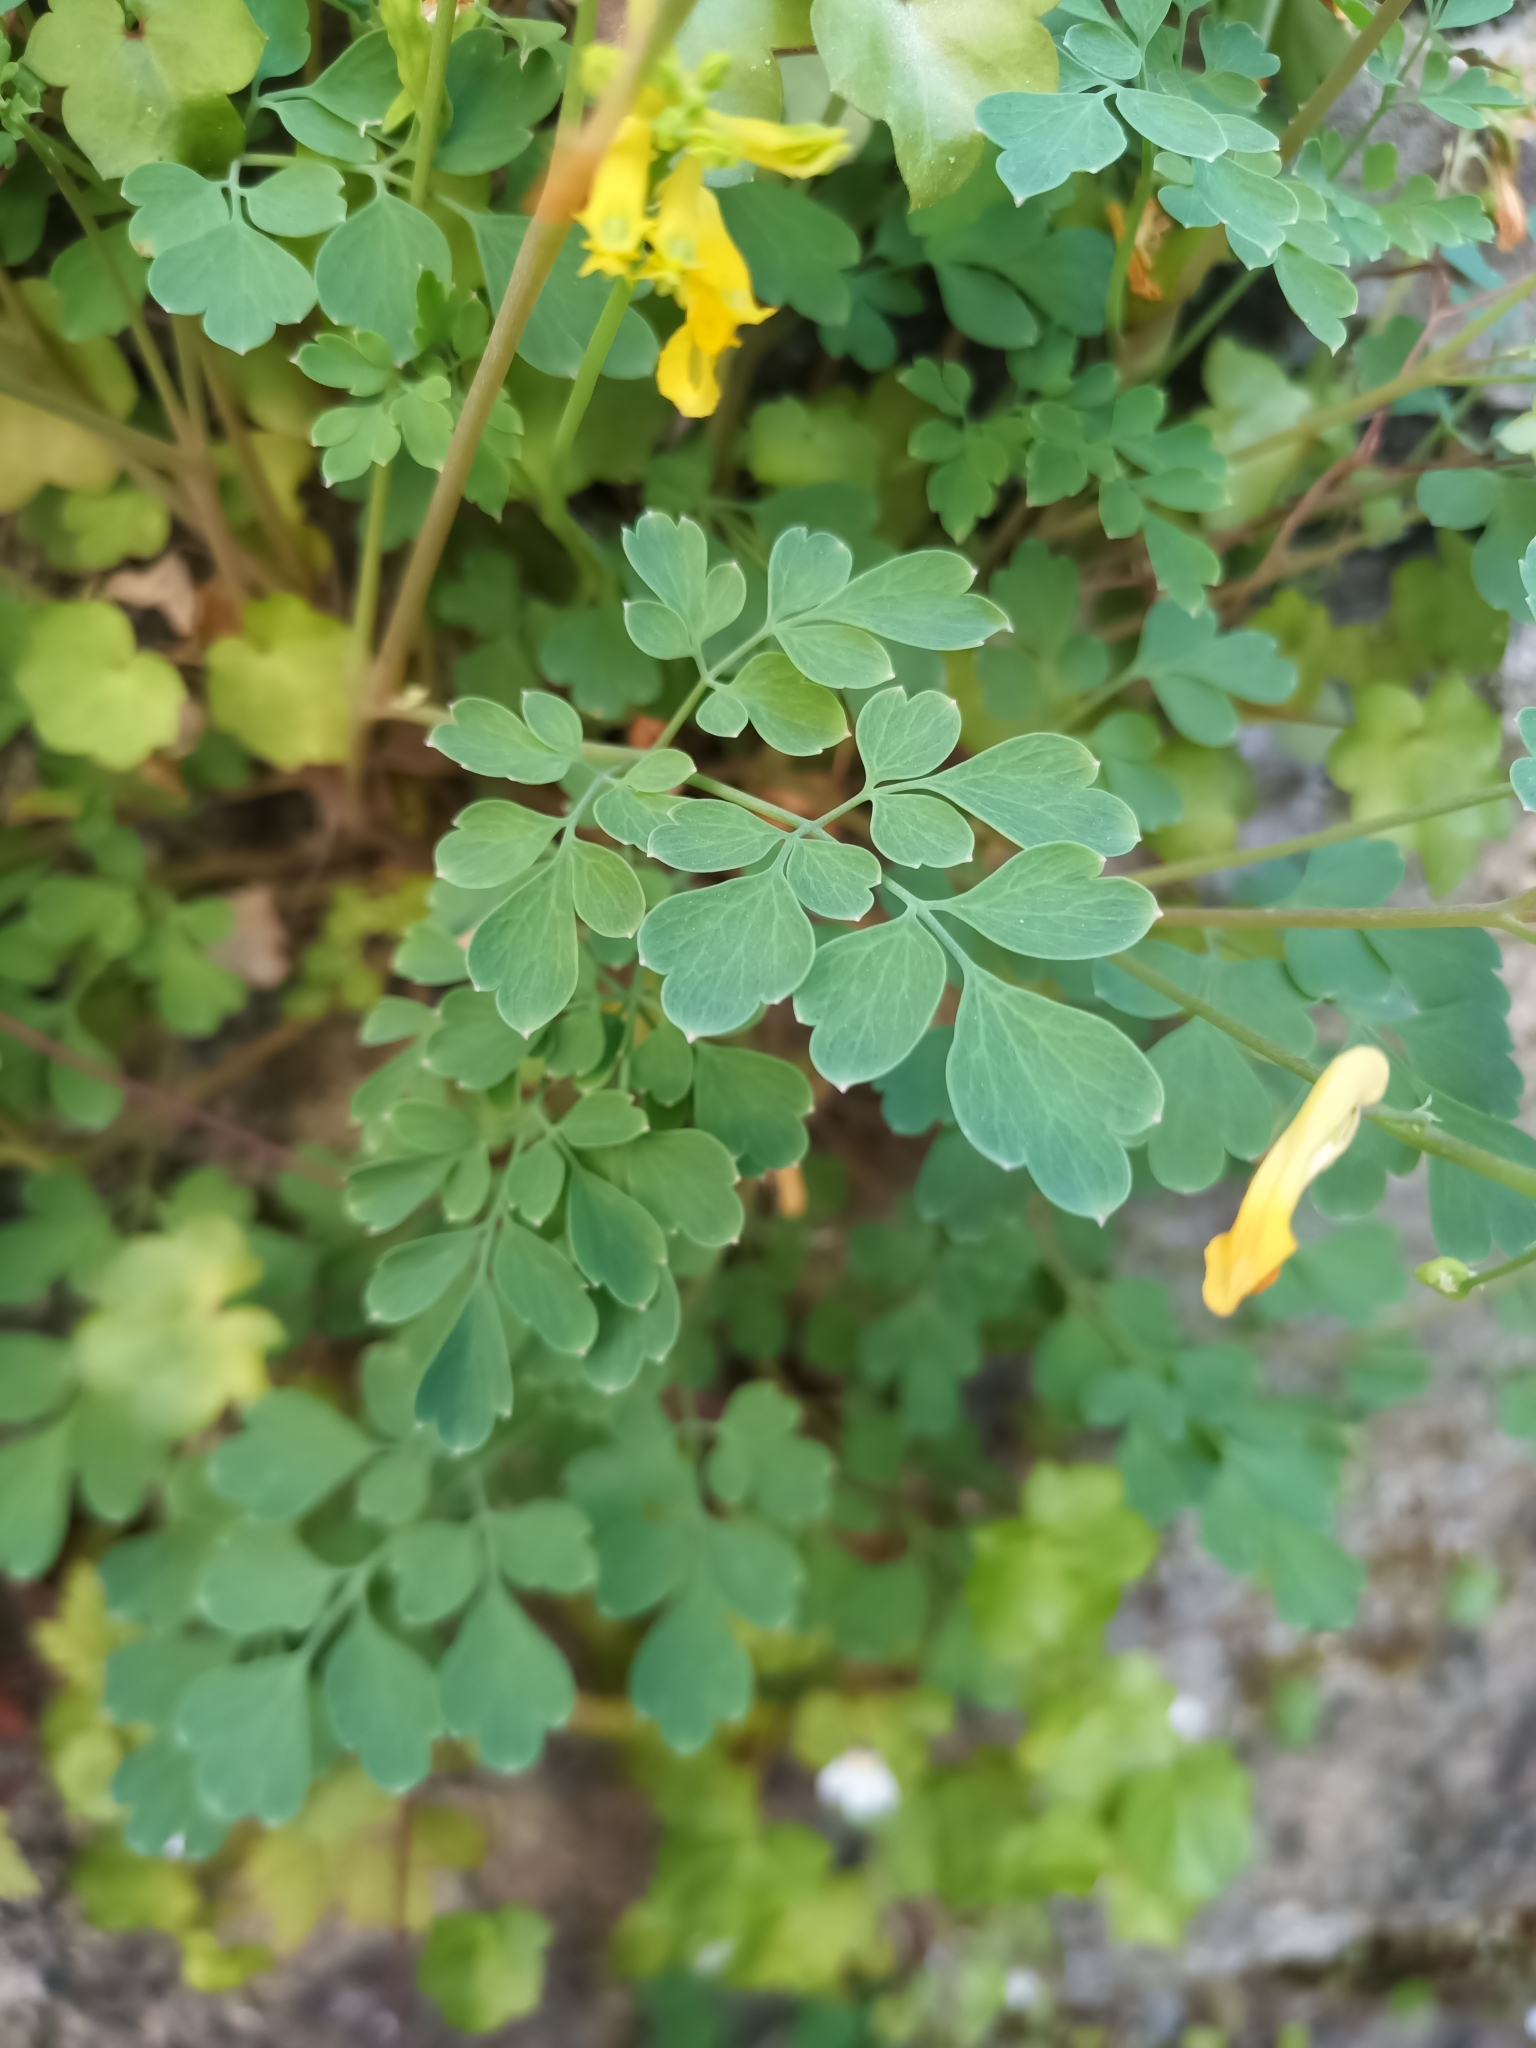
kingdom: Plantae
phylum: Tracheophyta
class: Magnoliopsida
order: Ranunculales
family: Papaveraceae
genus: Pseudofumaria
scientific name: Pseudofumaria lutea
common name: Yellow corydalis
